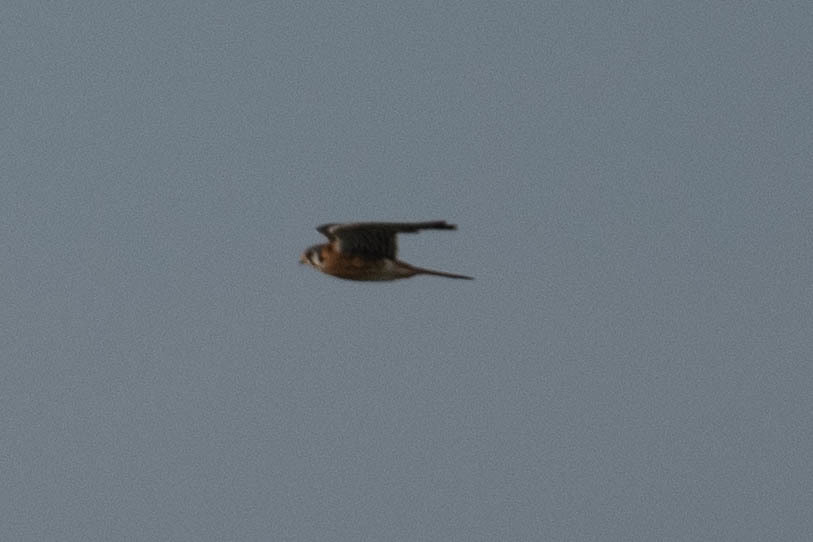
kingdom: Animalia
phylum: Chordata
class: Aves
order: Falconiformes
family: Falconidae
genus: Falco
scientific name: Falco sparverius
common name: American kestrel
